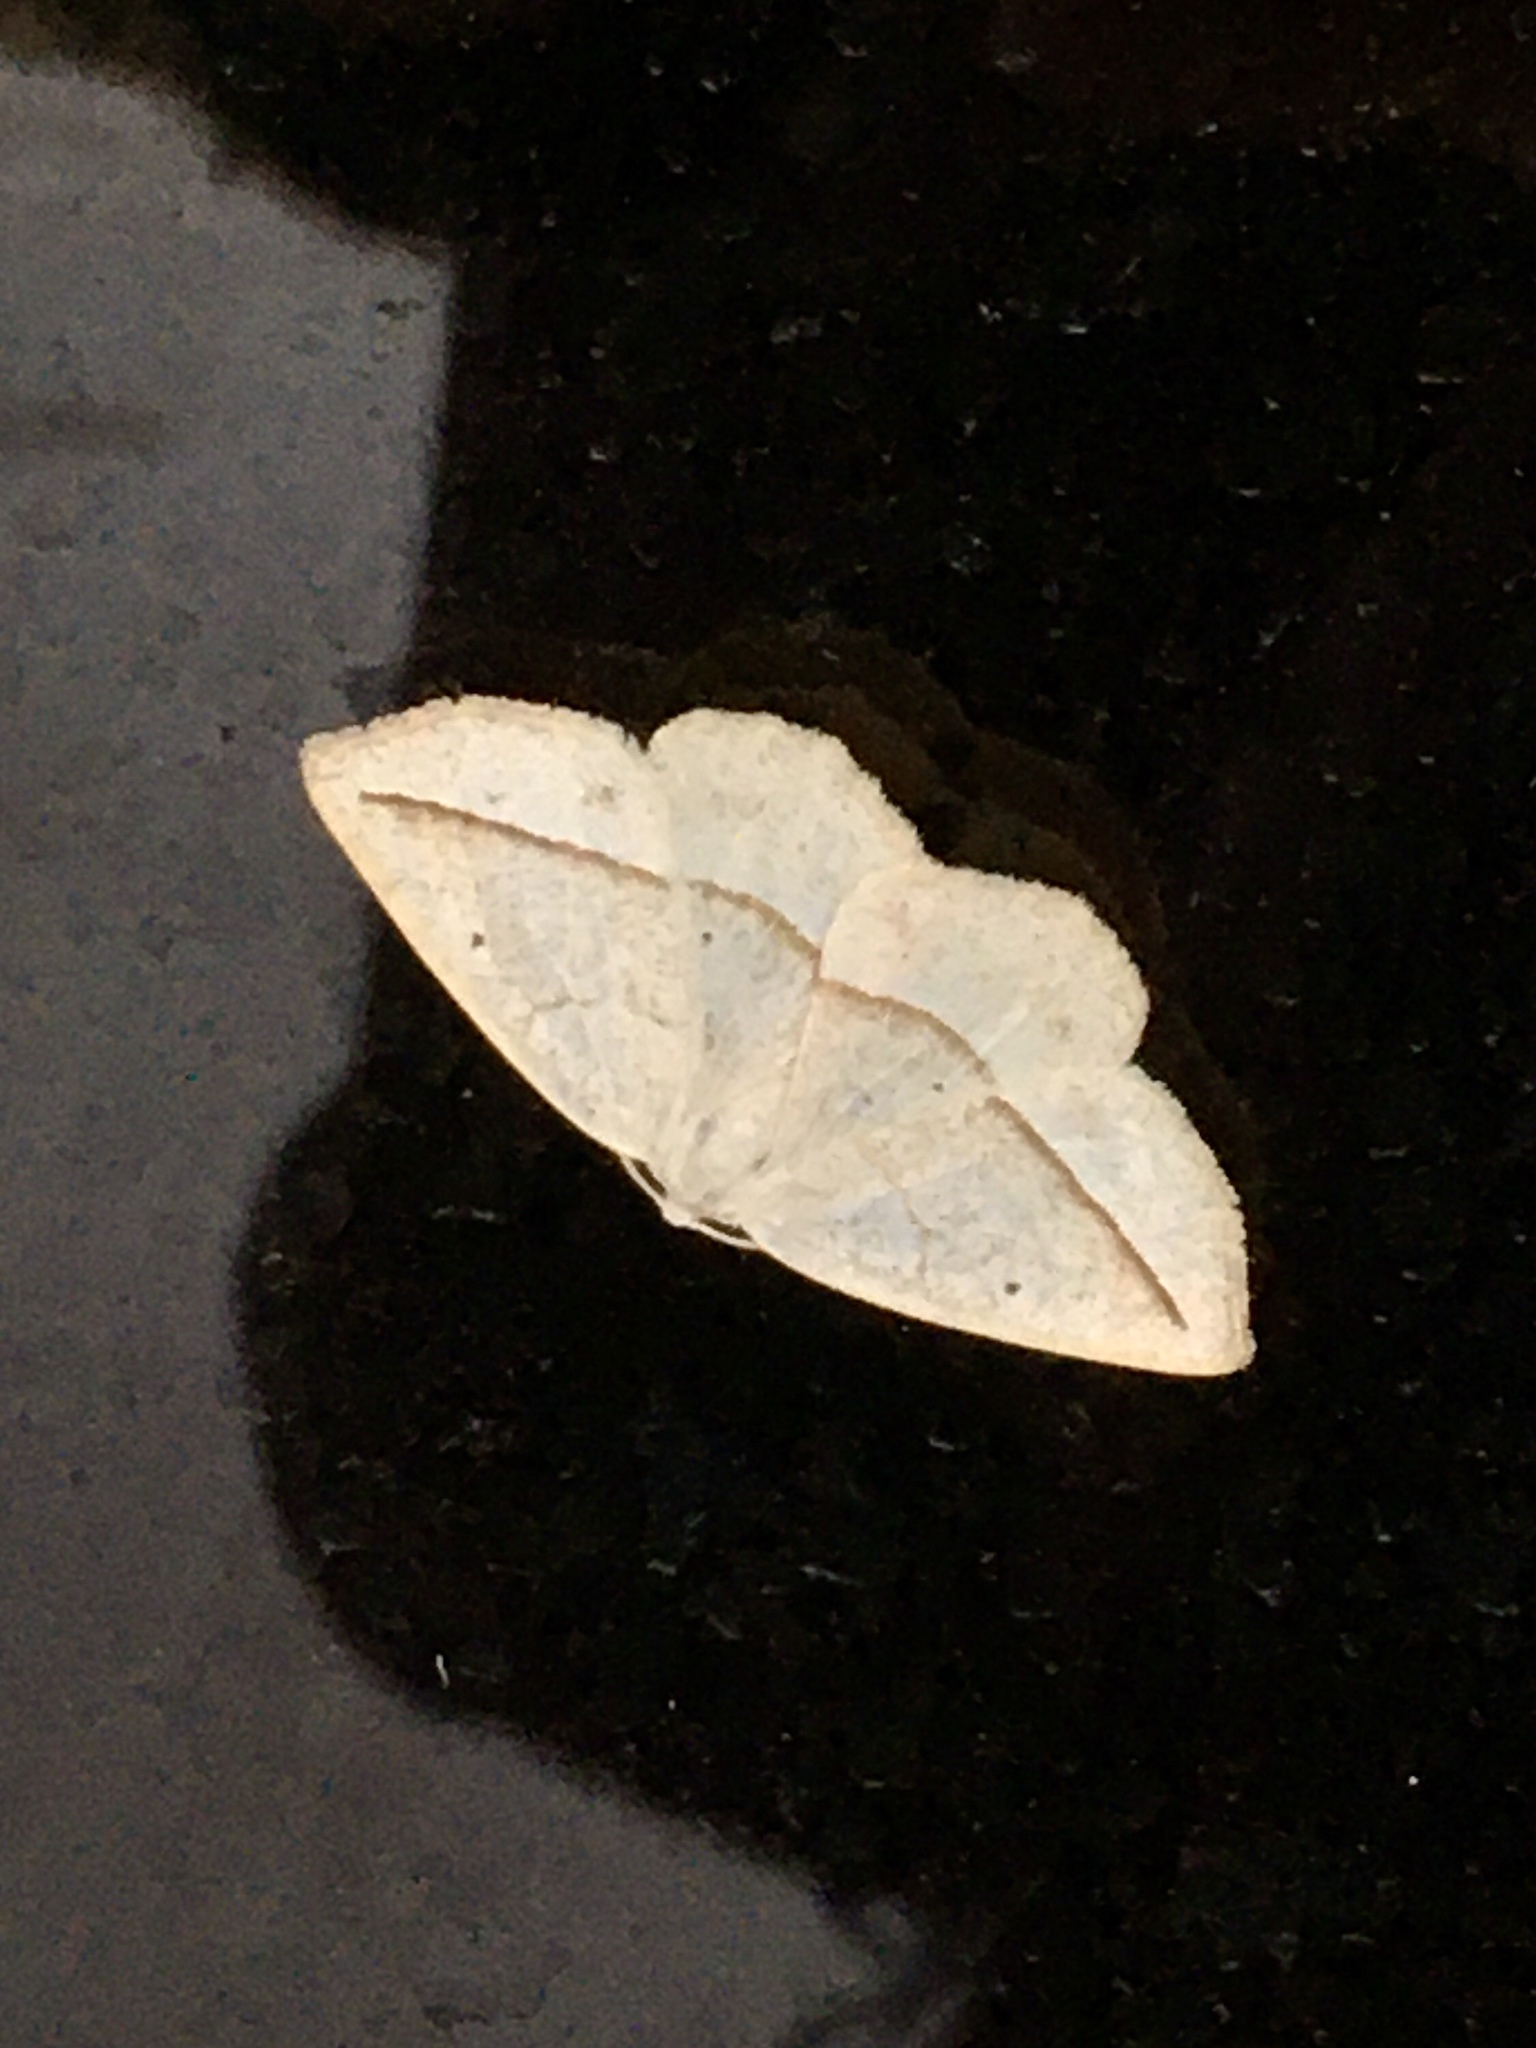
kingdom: Animalia
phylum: Arthropoda
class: Insecta
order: Lepidoptera
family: Geometridae
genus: Eusarca
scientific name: Eusarca confusaria
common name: Confused eusarca
